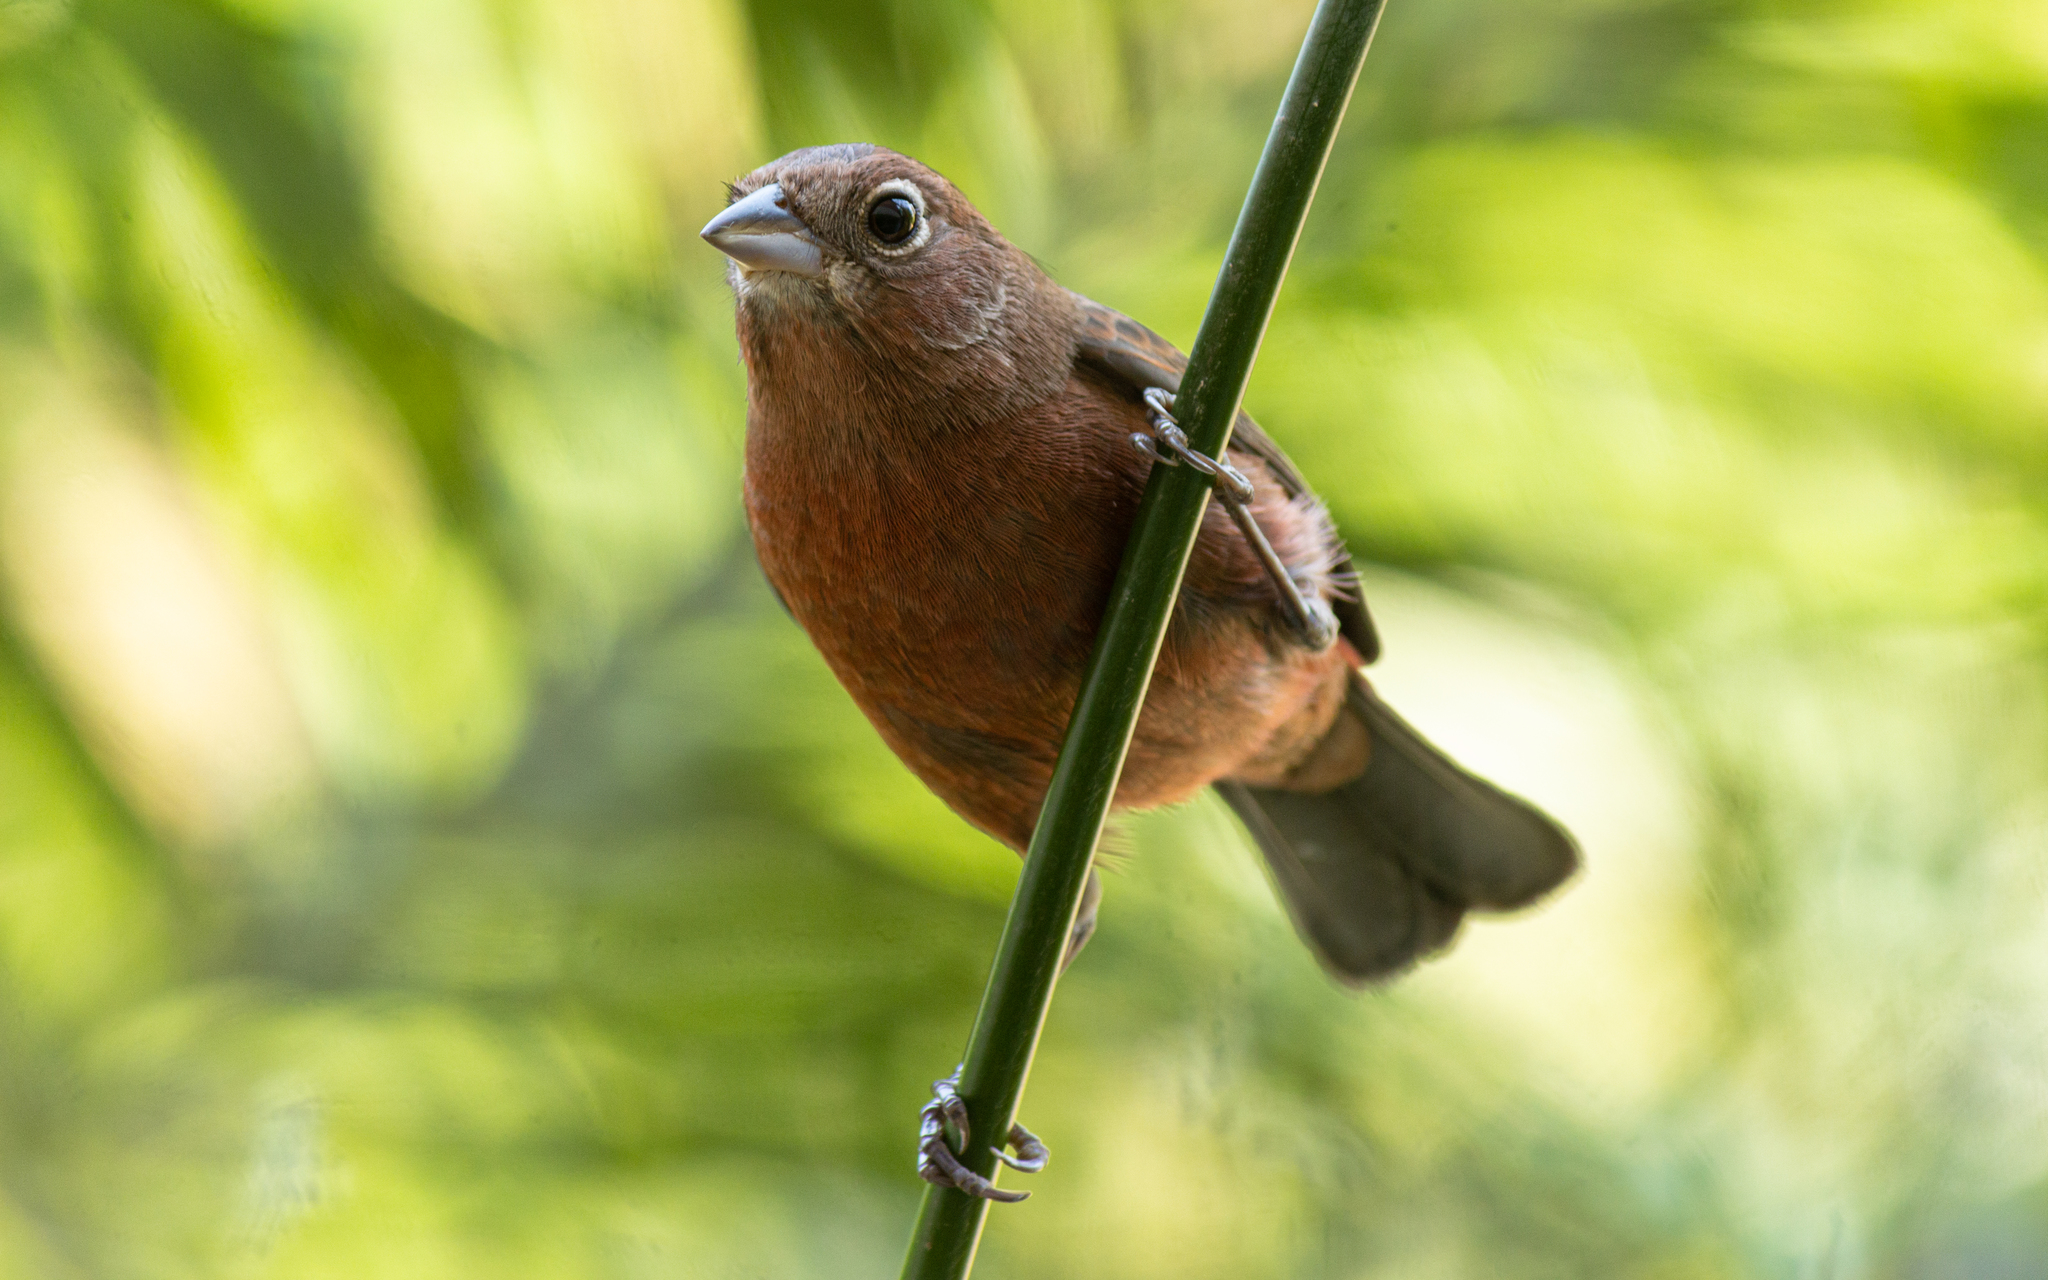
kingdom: Animalia
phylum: Chordata
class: Aves
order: Passeriformes
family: Thraupidae
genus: Coryphospingus
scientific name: Coryphospingus cucullatus
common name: Red pileated finch
